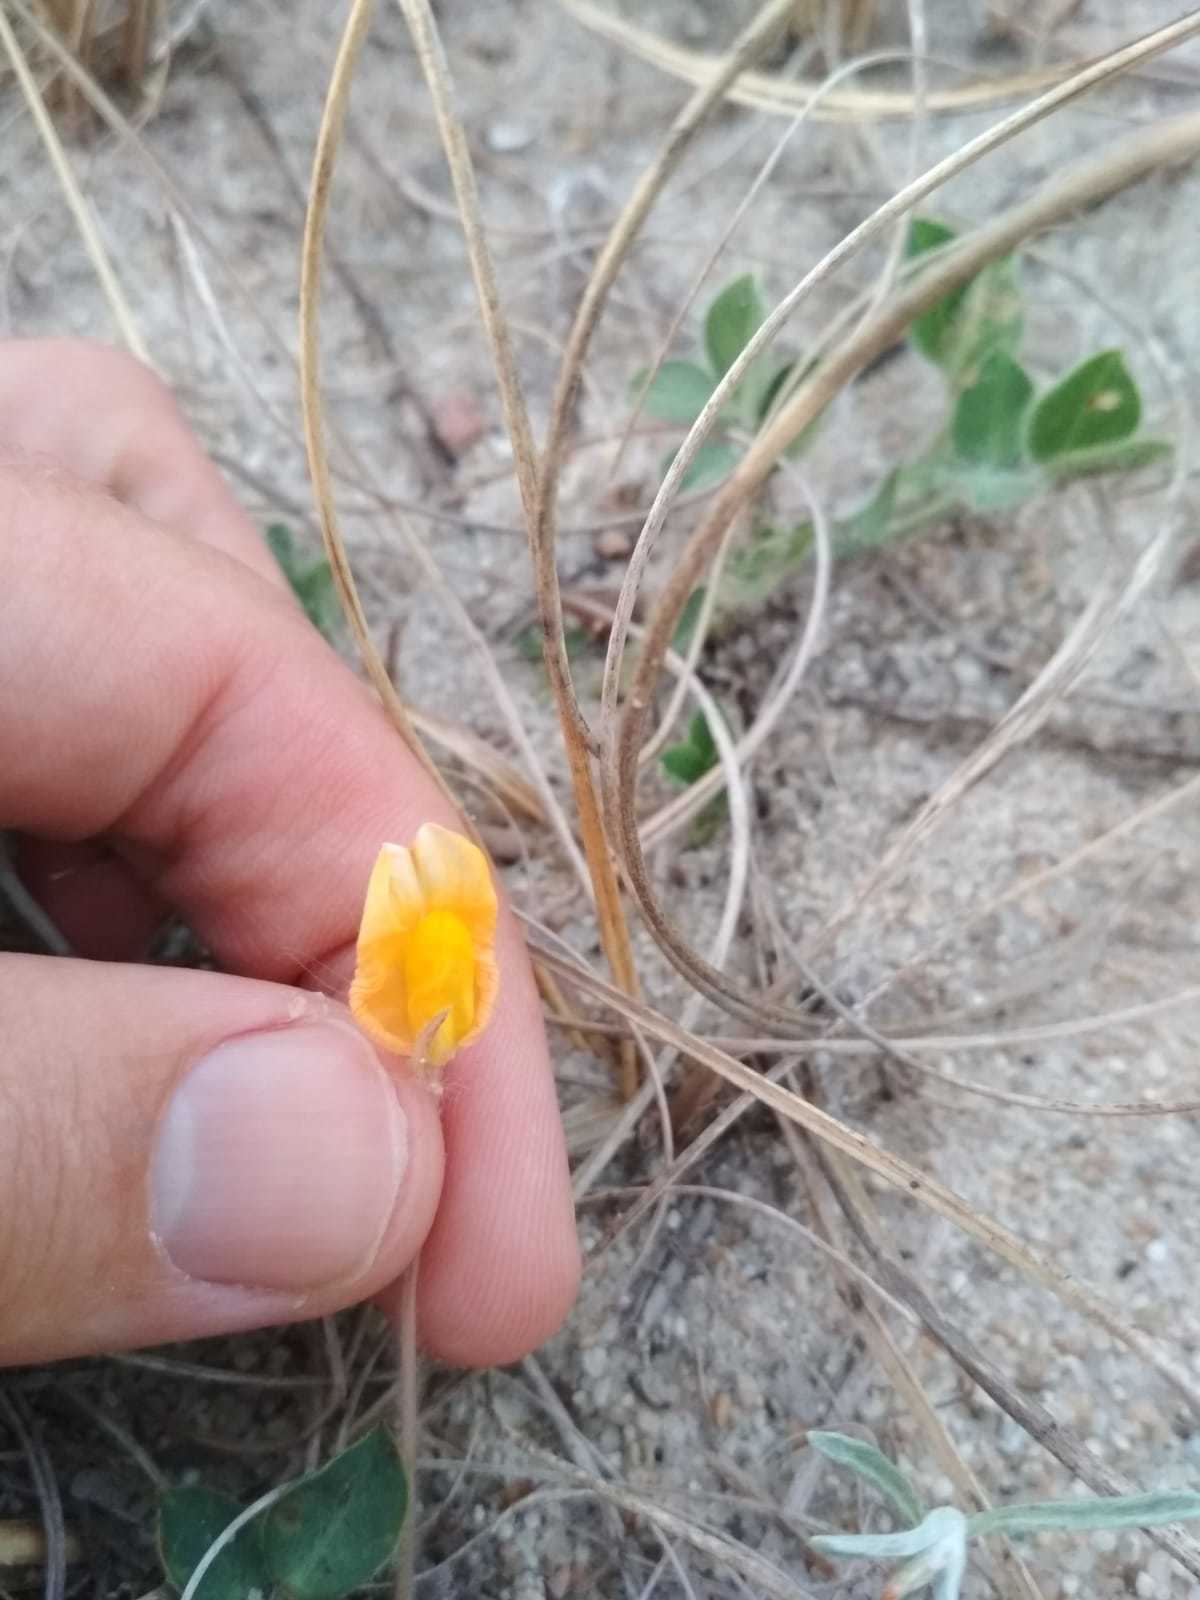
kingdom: Plantae
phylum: Tracheophyta
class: Magnoliopsida
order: Fabales
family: Fabaceae
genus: Arachis
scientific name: Arachis villosa
